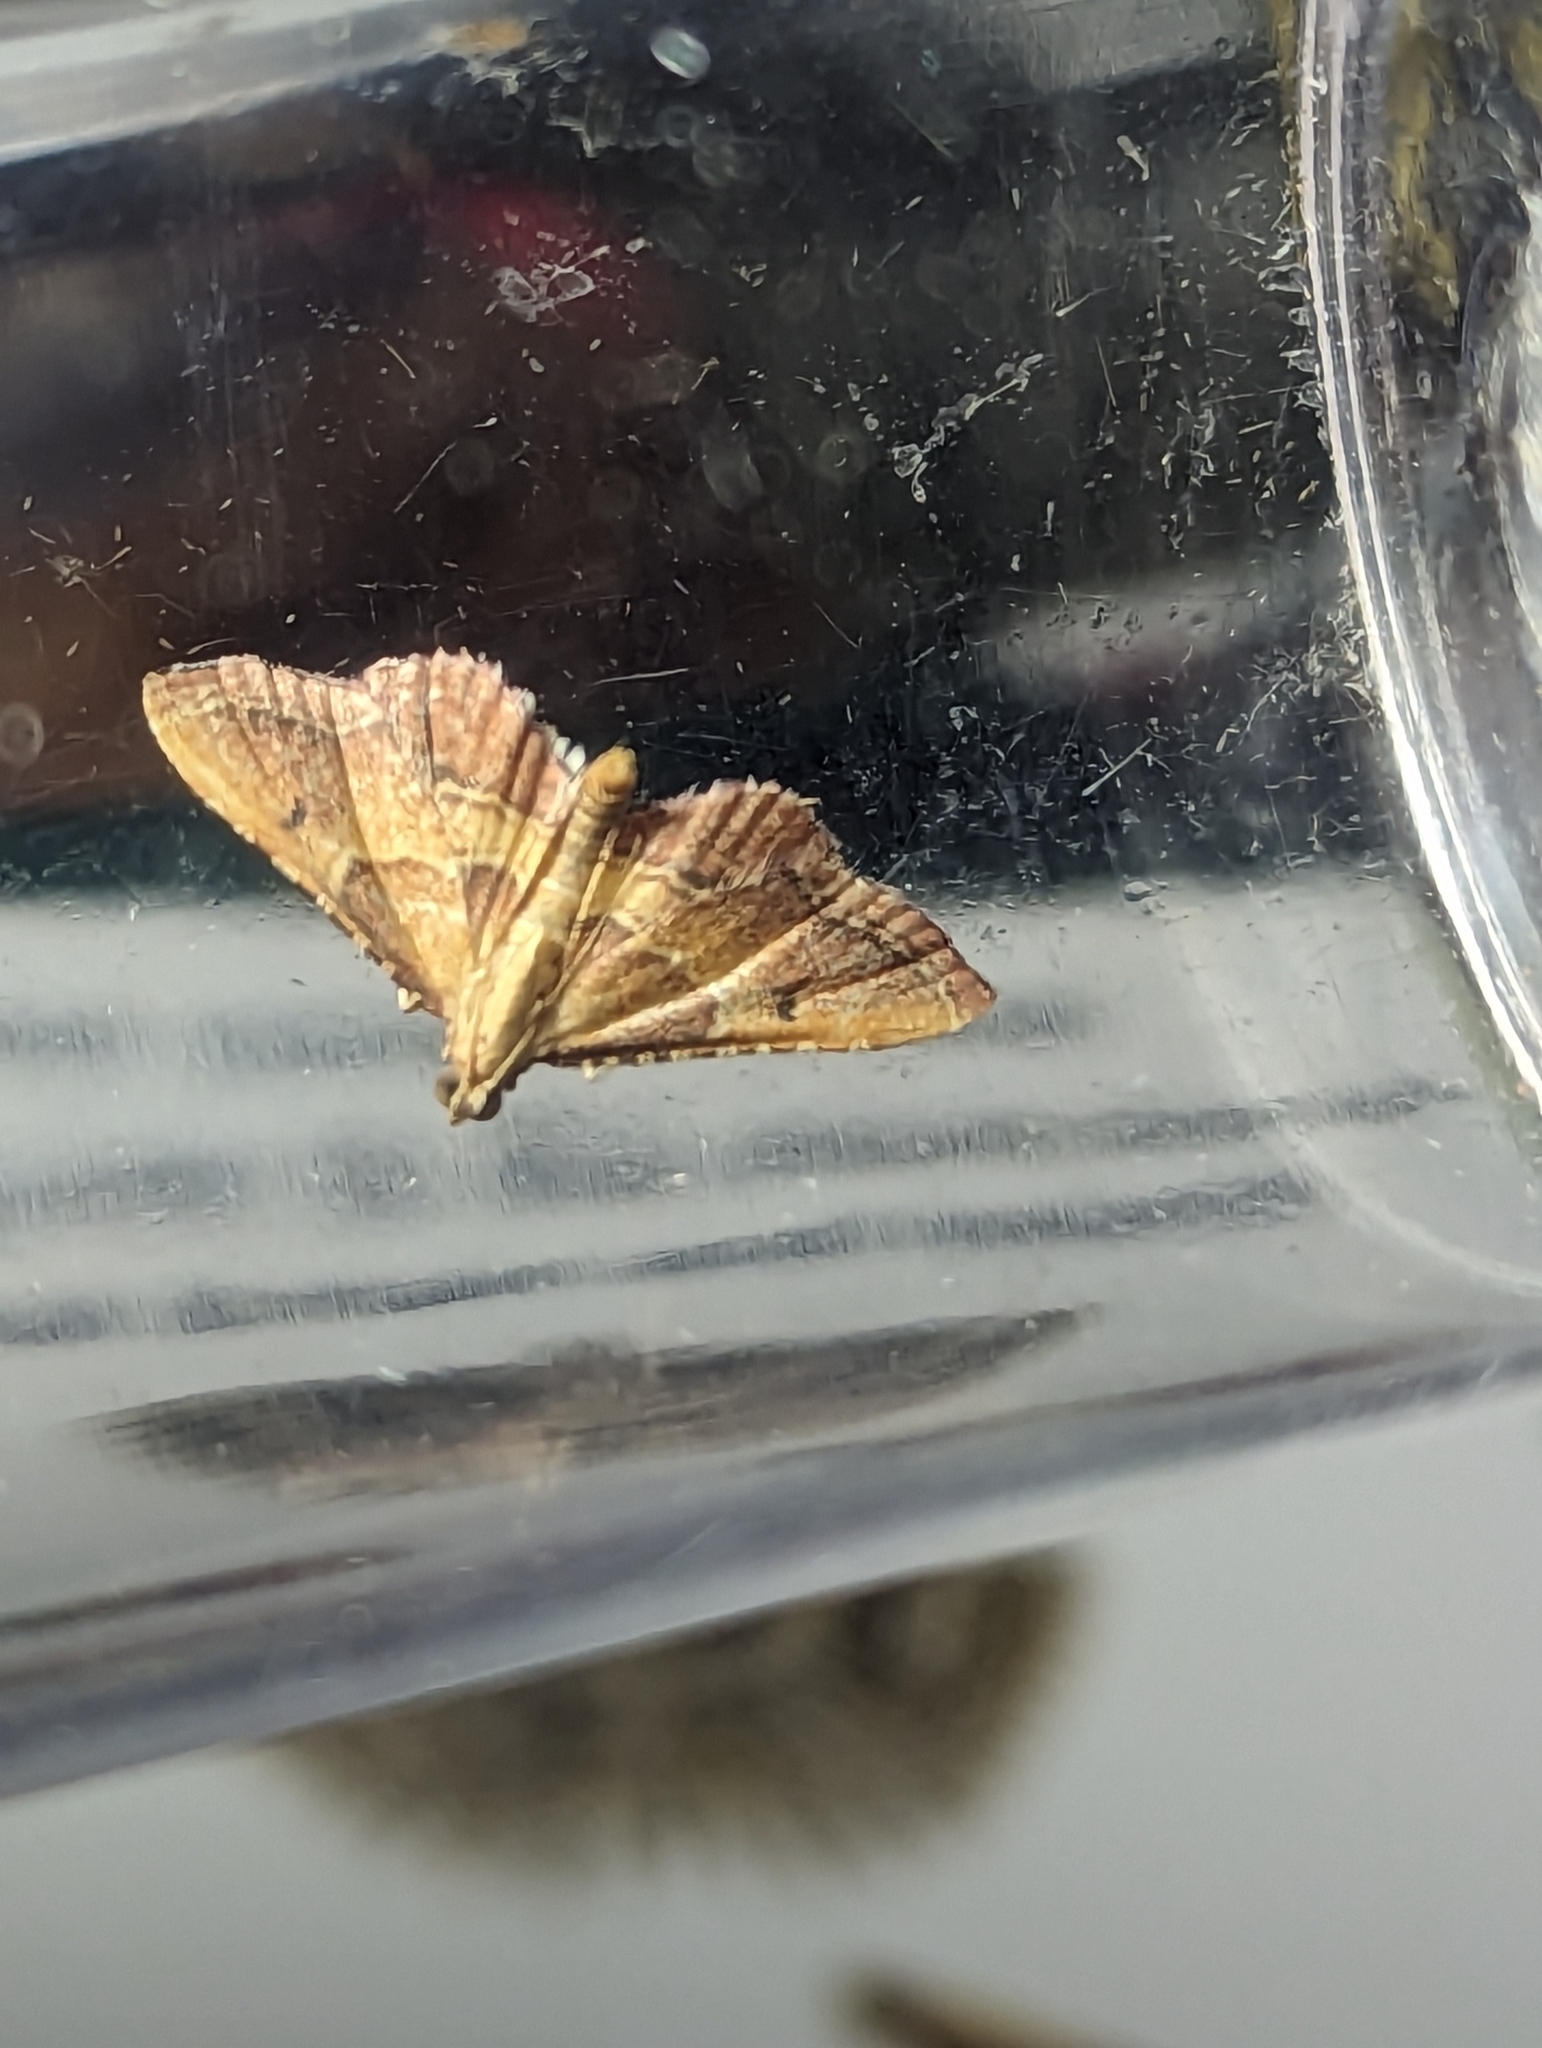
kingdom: Animalia
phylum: Arthropoda
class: Insecta
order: Lepidoptera
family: Pyralidae
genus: Endotricha
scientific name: Endotricha flammealis
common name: Rosy tabby
